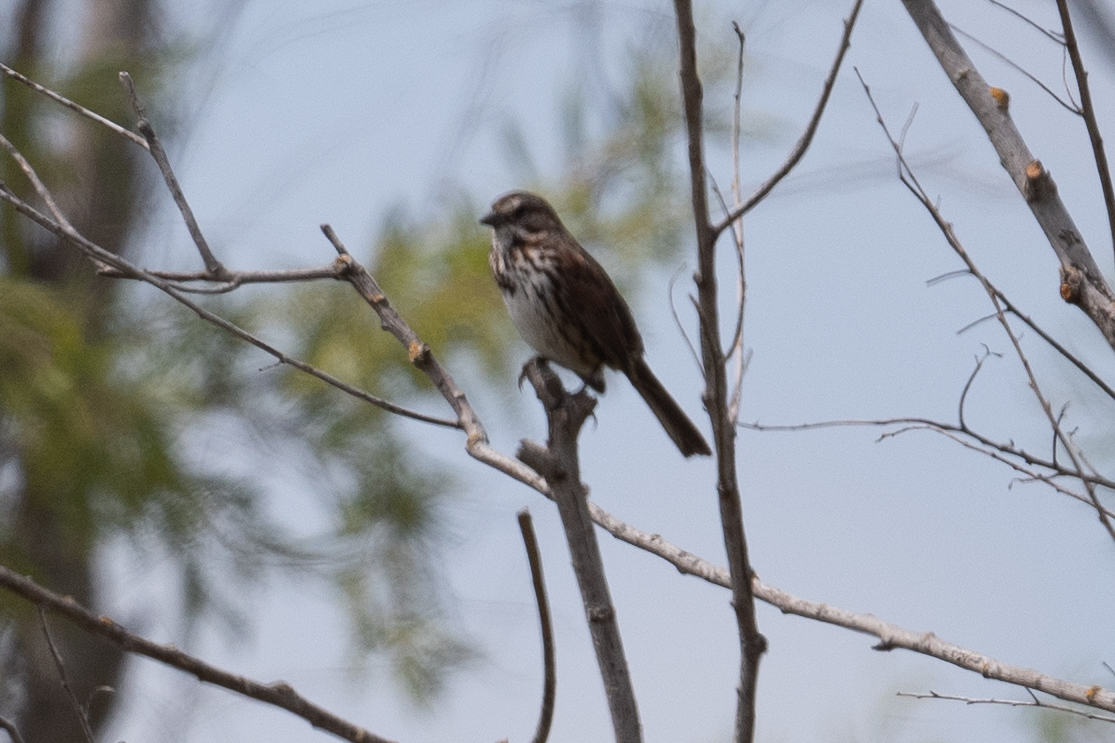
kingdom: Animalia
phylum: Chordata
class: Aves
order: Passeriformes
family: Passerellidae
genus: Melospiza
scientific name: Melospiza melodia
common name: Song sparrow
